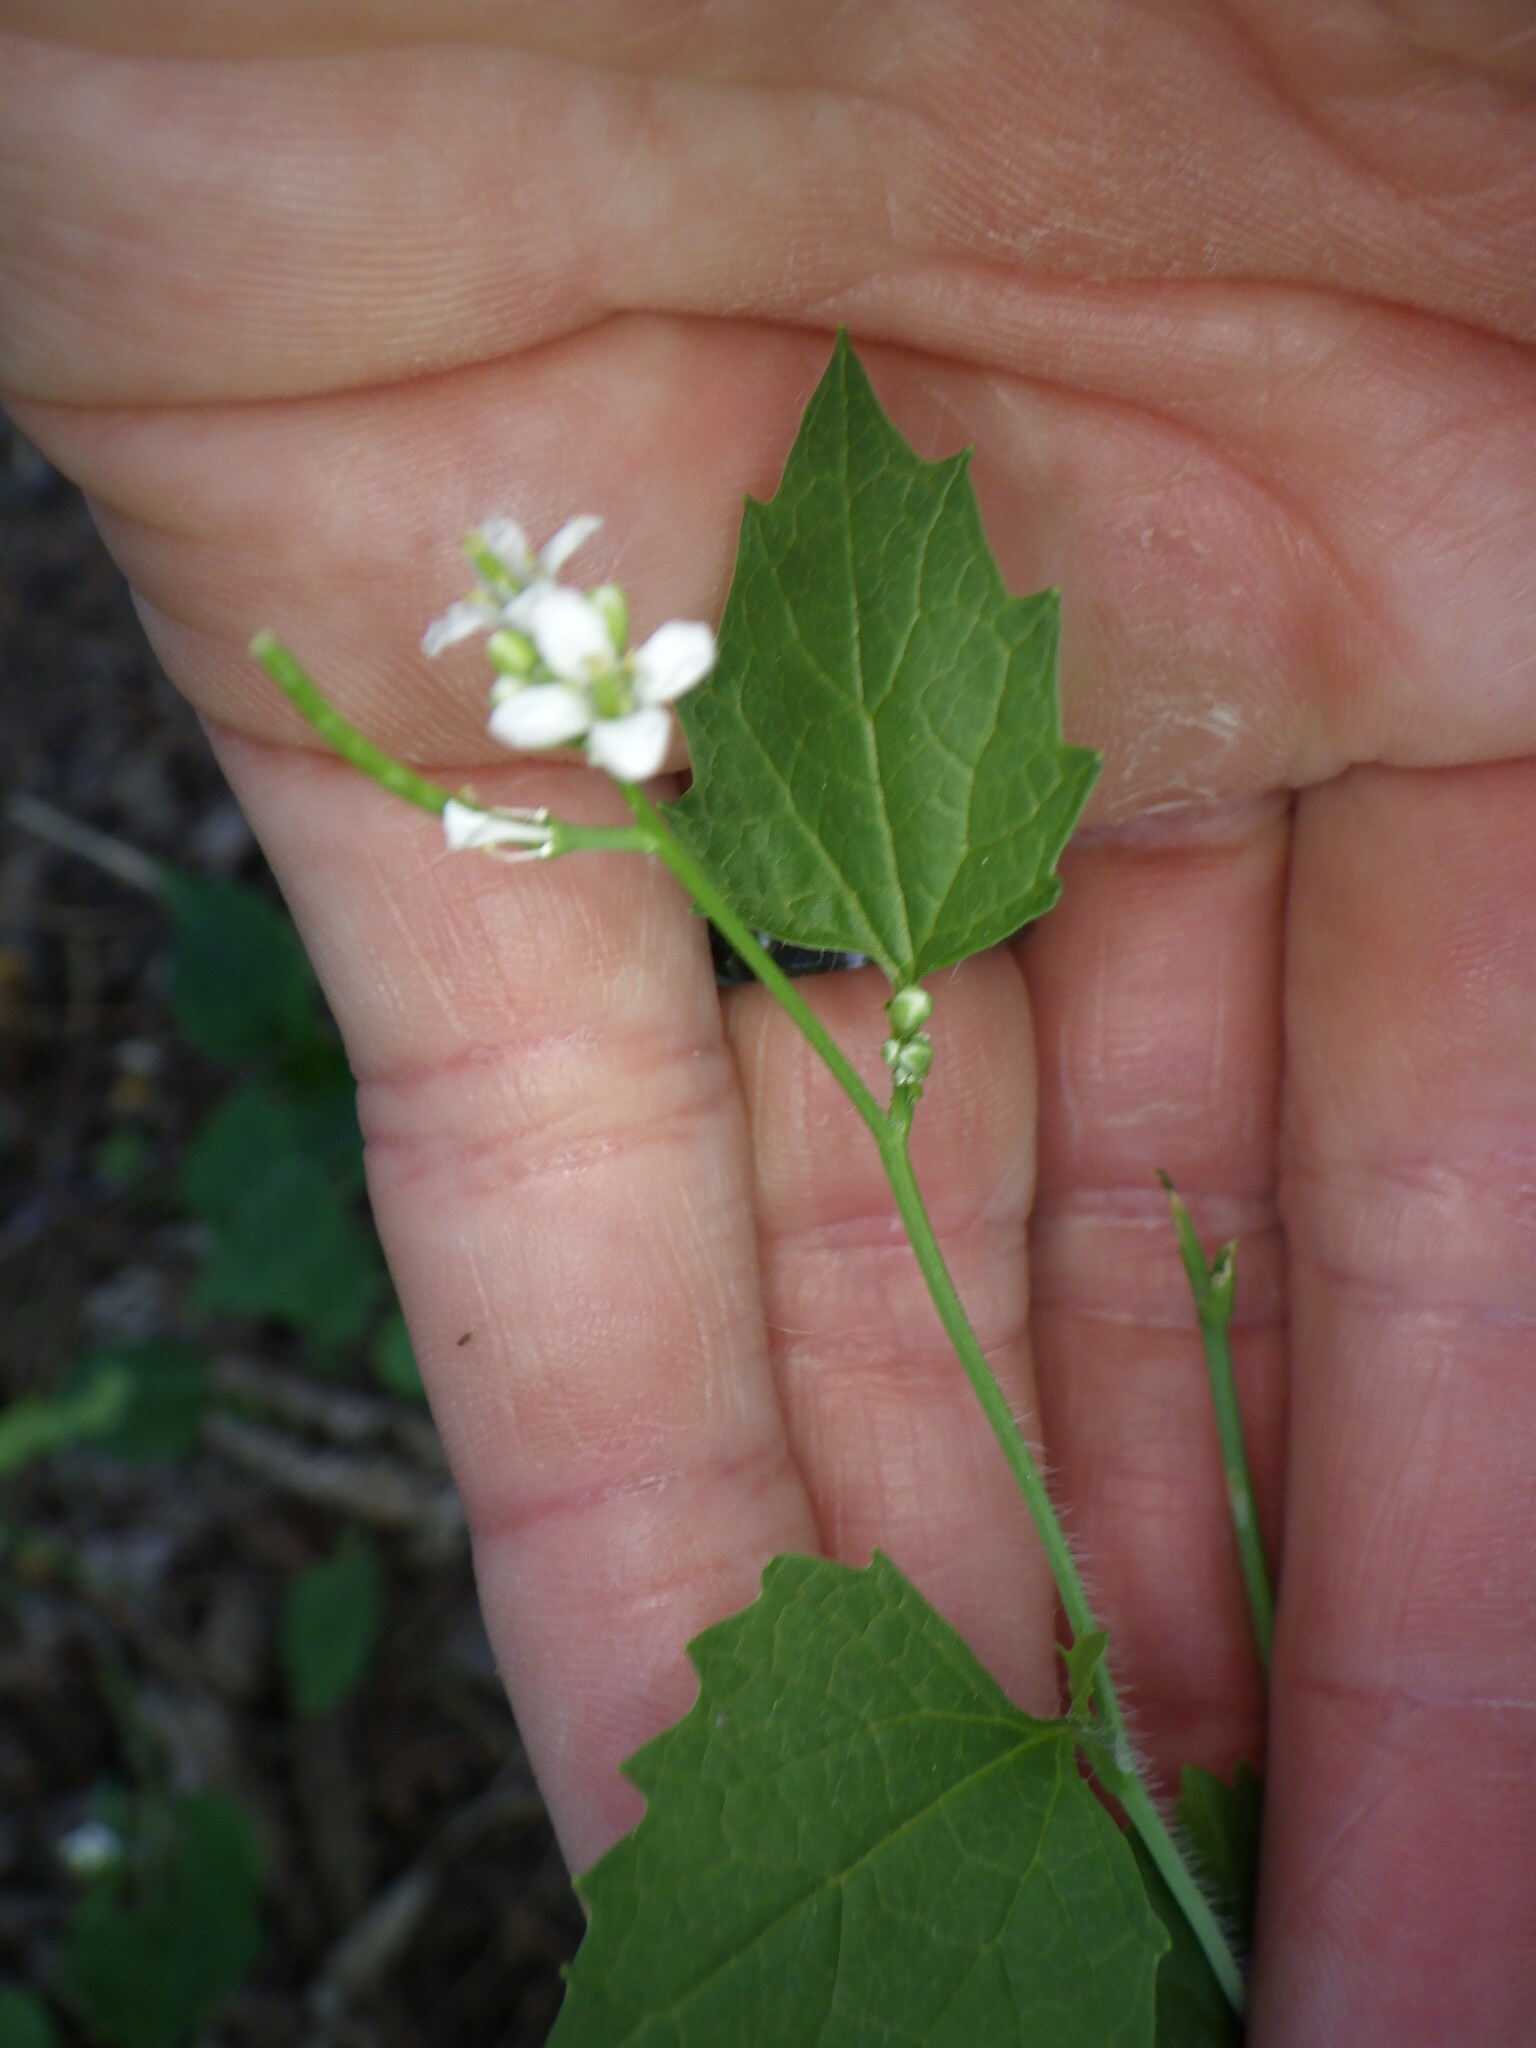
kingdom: Plantae
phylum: Tracheophyta
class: Magnoliopsida
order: Brassicales
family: Brassicaceae
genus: Alliaria
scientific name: Alliaria petiolata
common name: Garlic mustard
